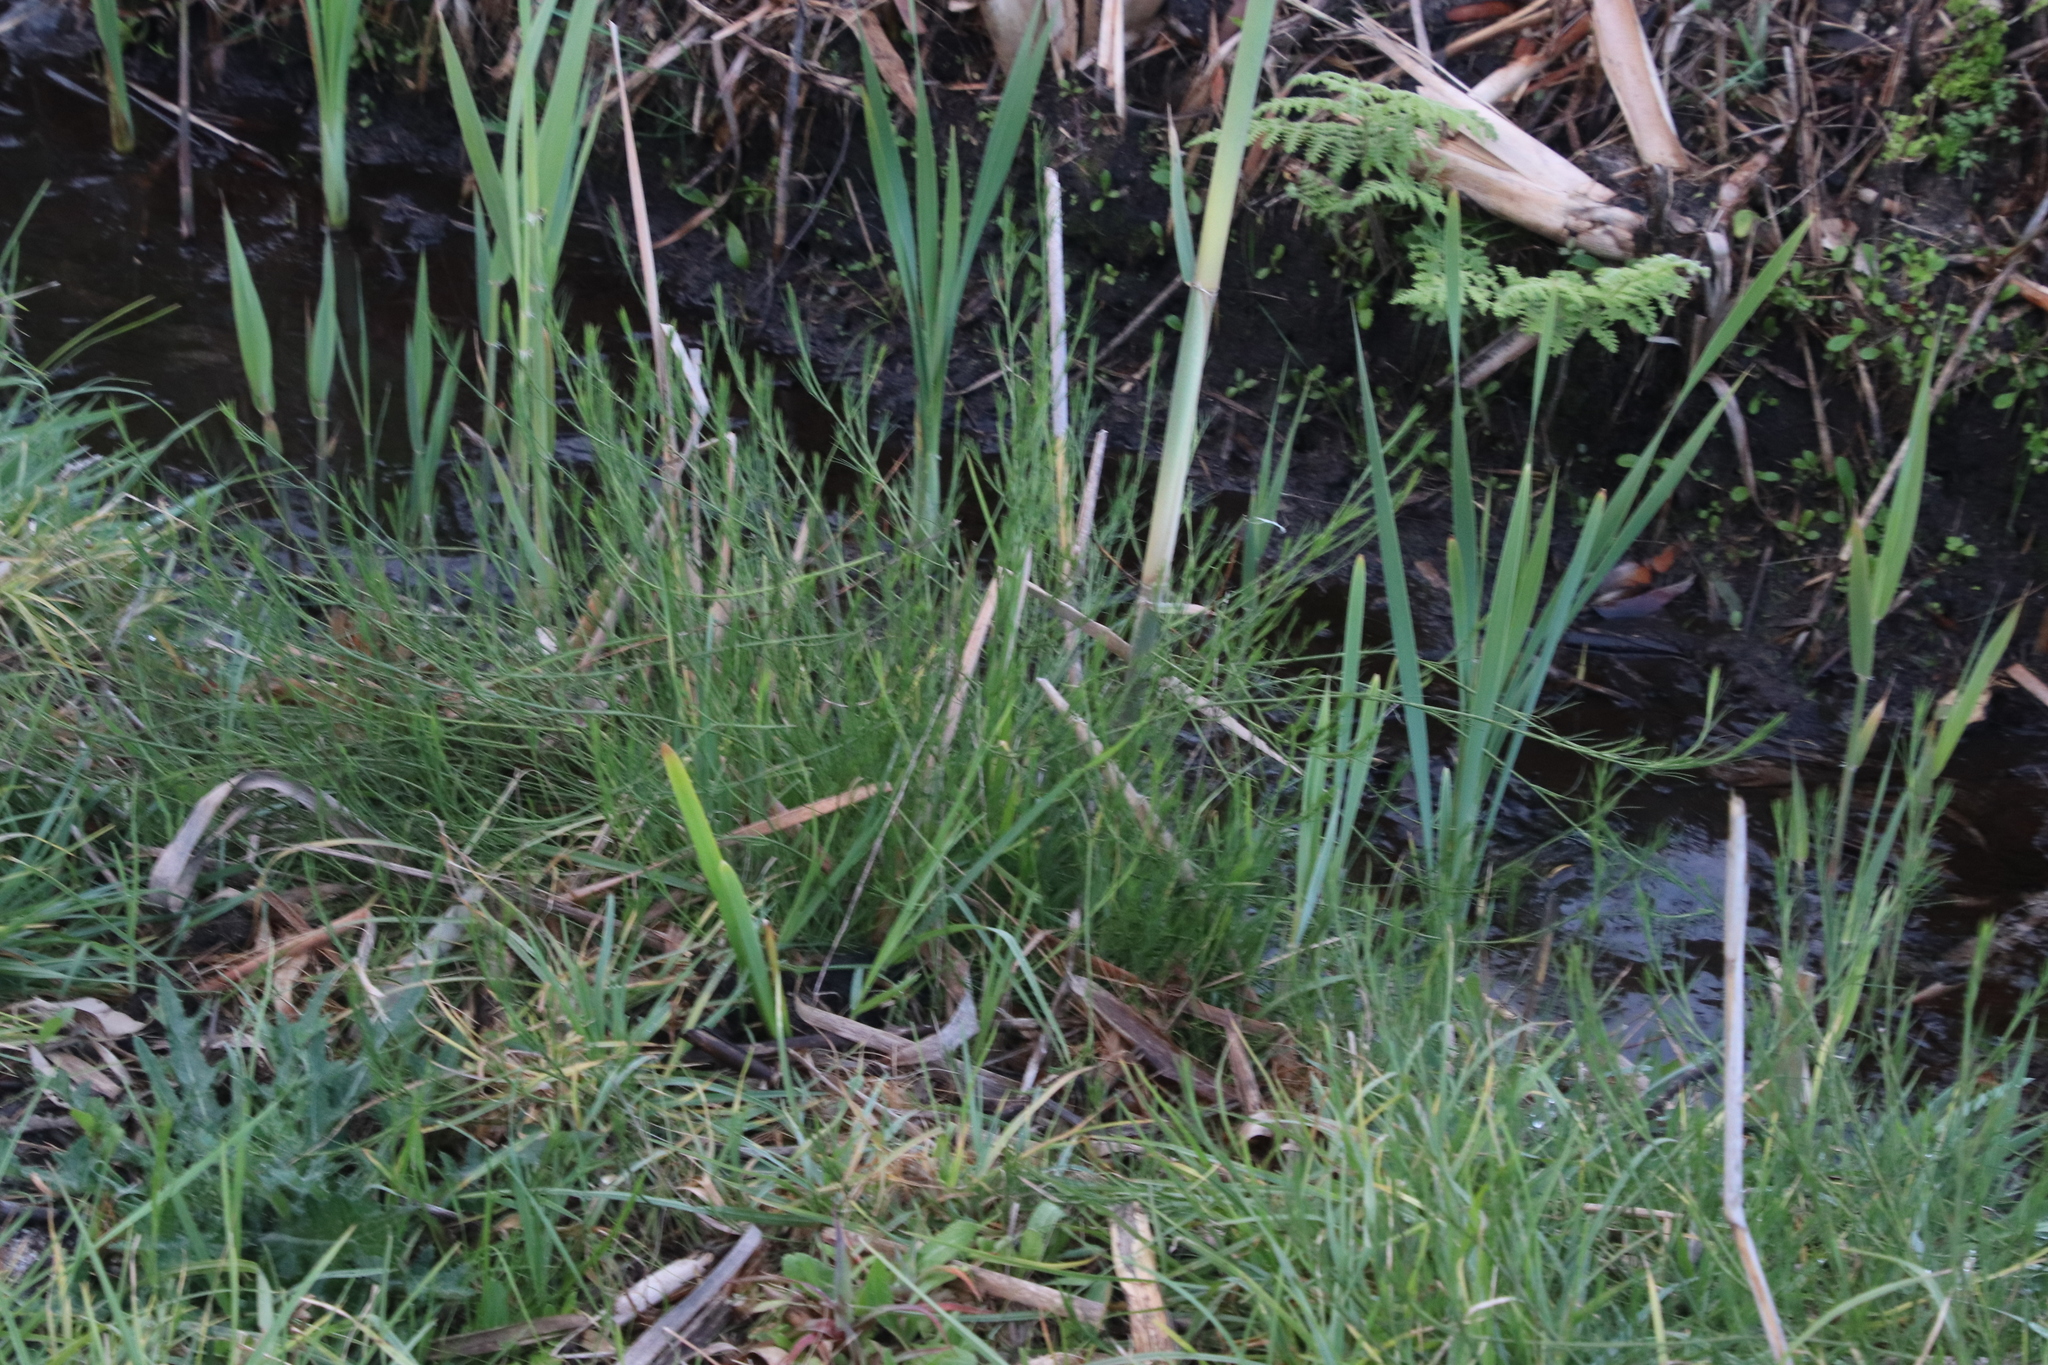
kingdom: Plantae
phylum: Tracheophyta
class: Magnoliopsida
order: Fabales
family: Fabaceae
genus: Psoralea
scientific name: Psoralea fascicularis
